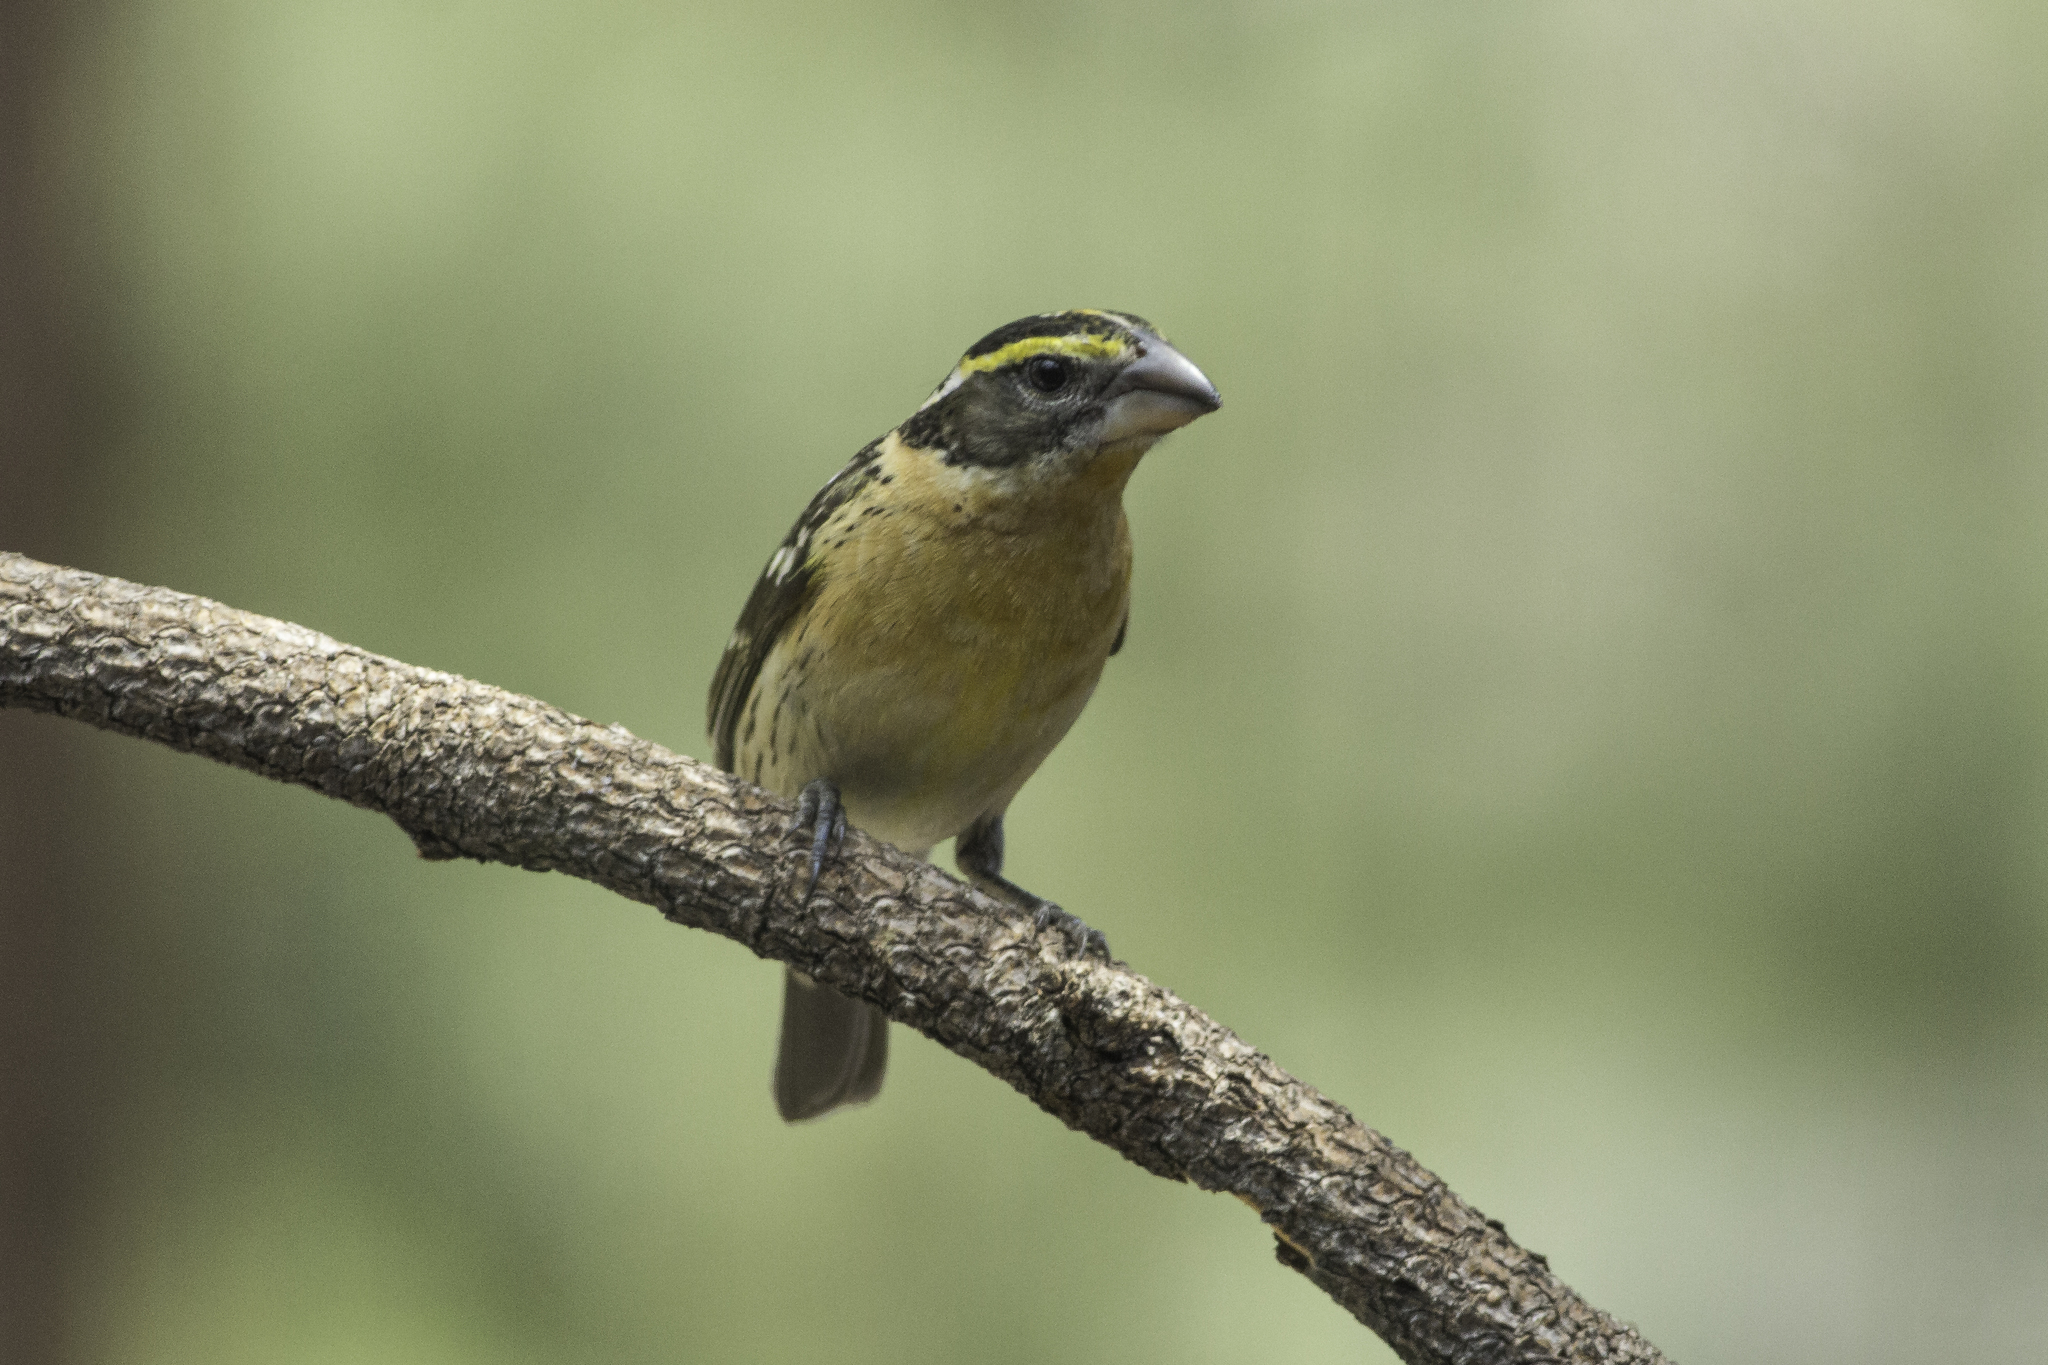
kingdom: Animalia
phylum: Chordata
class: Aves
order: Passeriformes
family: Cardinalidae
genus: Pheucticus
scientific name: Pheucticus melanocephalus
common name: Black-headed grosbeak
